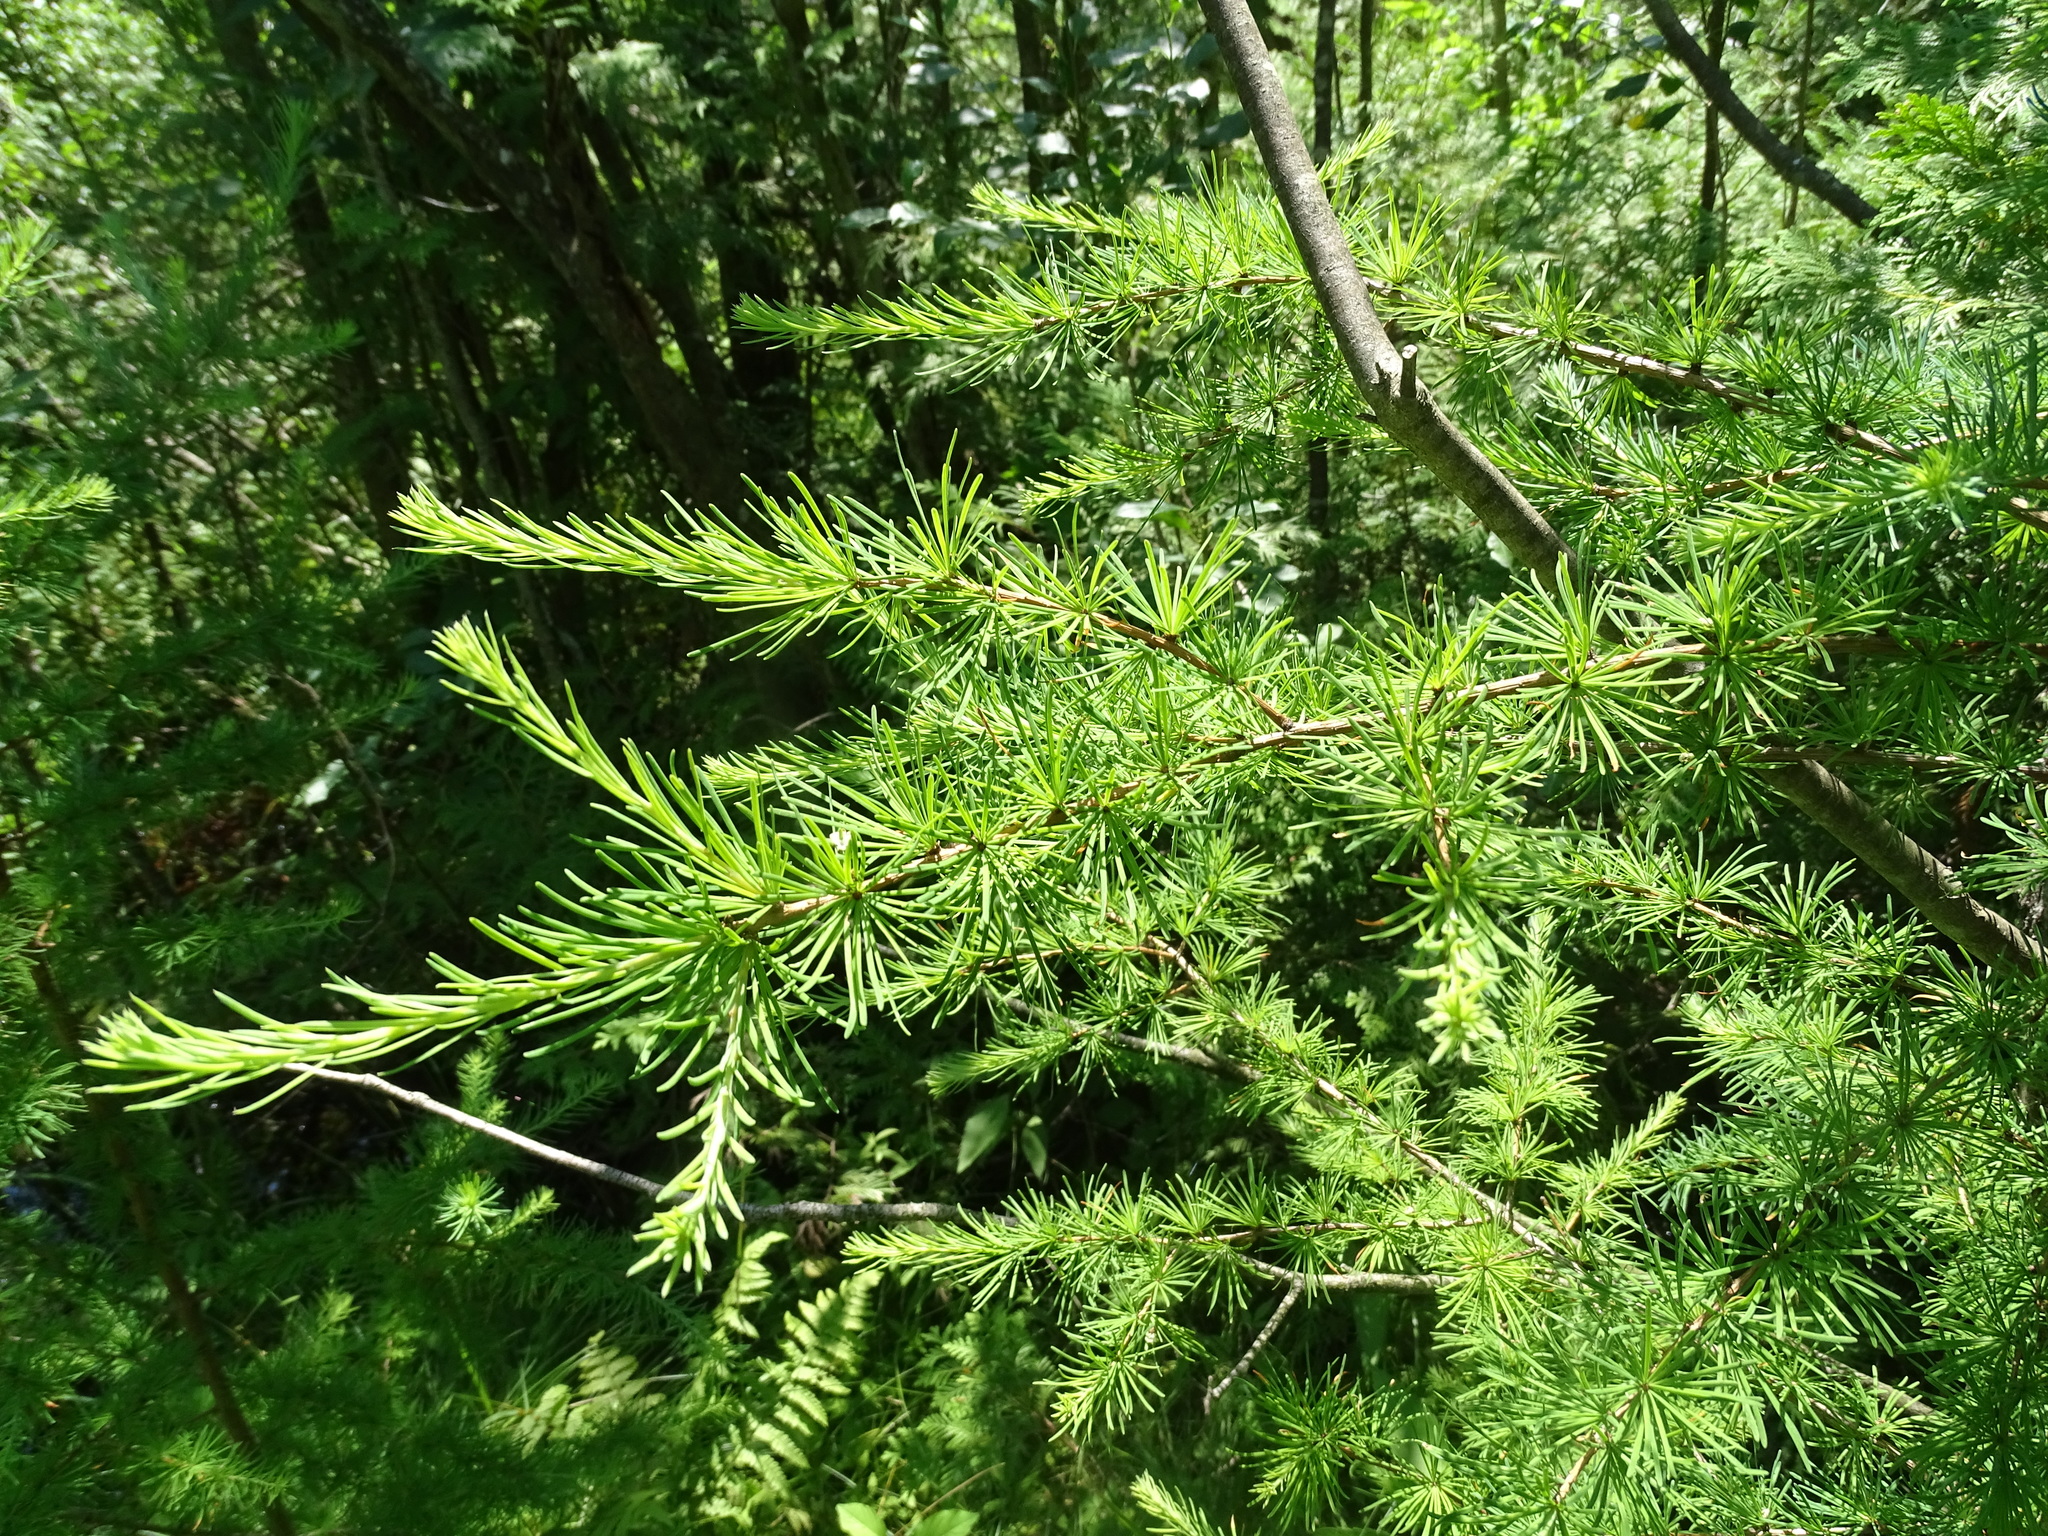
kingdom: Plantae
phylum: Tracheophyta
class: Pinopsida
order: Pinales
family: Pinaceae
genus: Larix
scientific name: Larix laricina
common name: American larch
